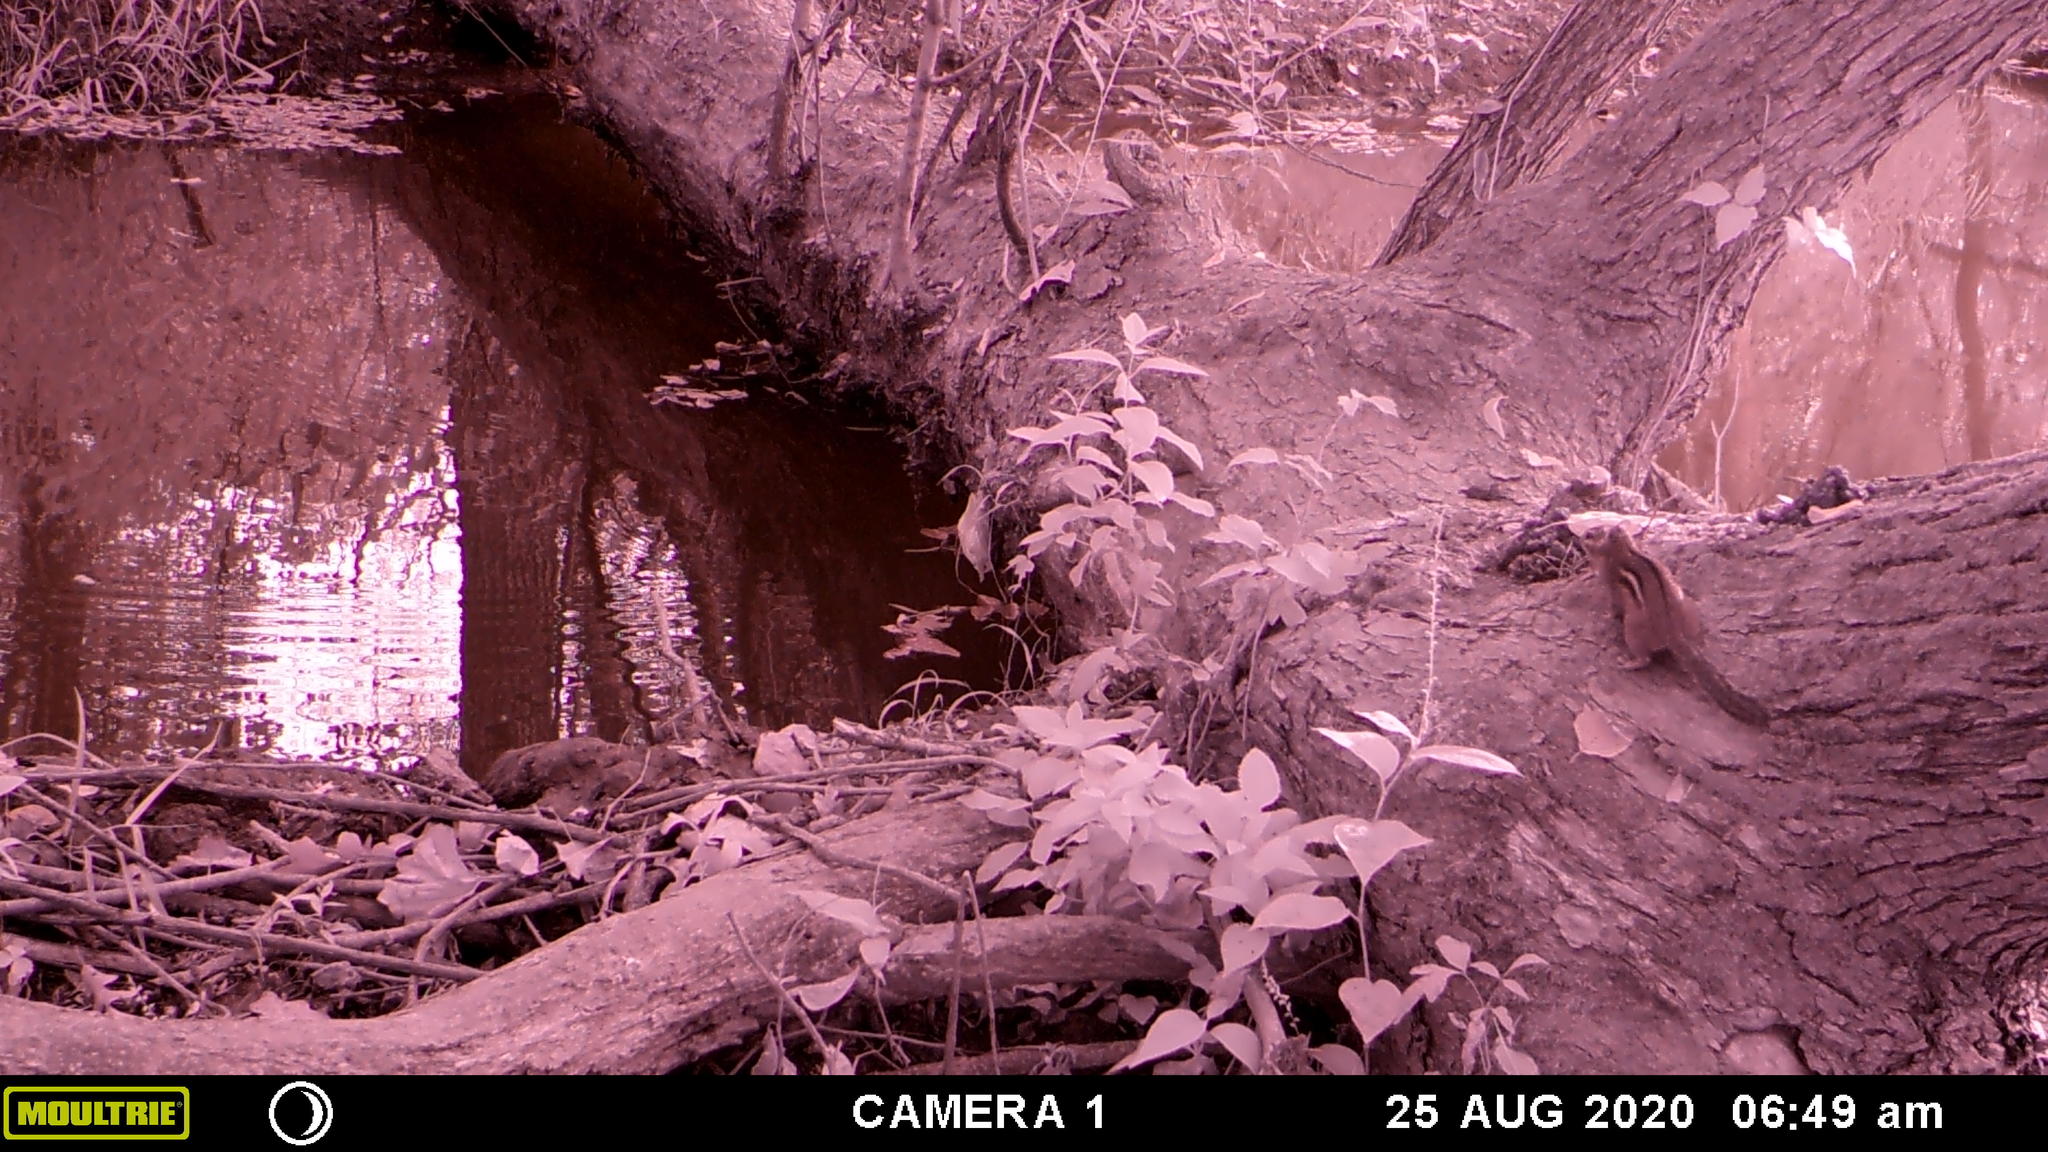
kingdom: Animalia
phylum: Chordata
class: Mammalia
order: Rodentia
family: Sciuridae
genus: Tamias
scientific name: Tamias striatus
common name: Eastern chipmunk
